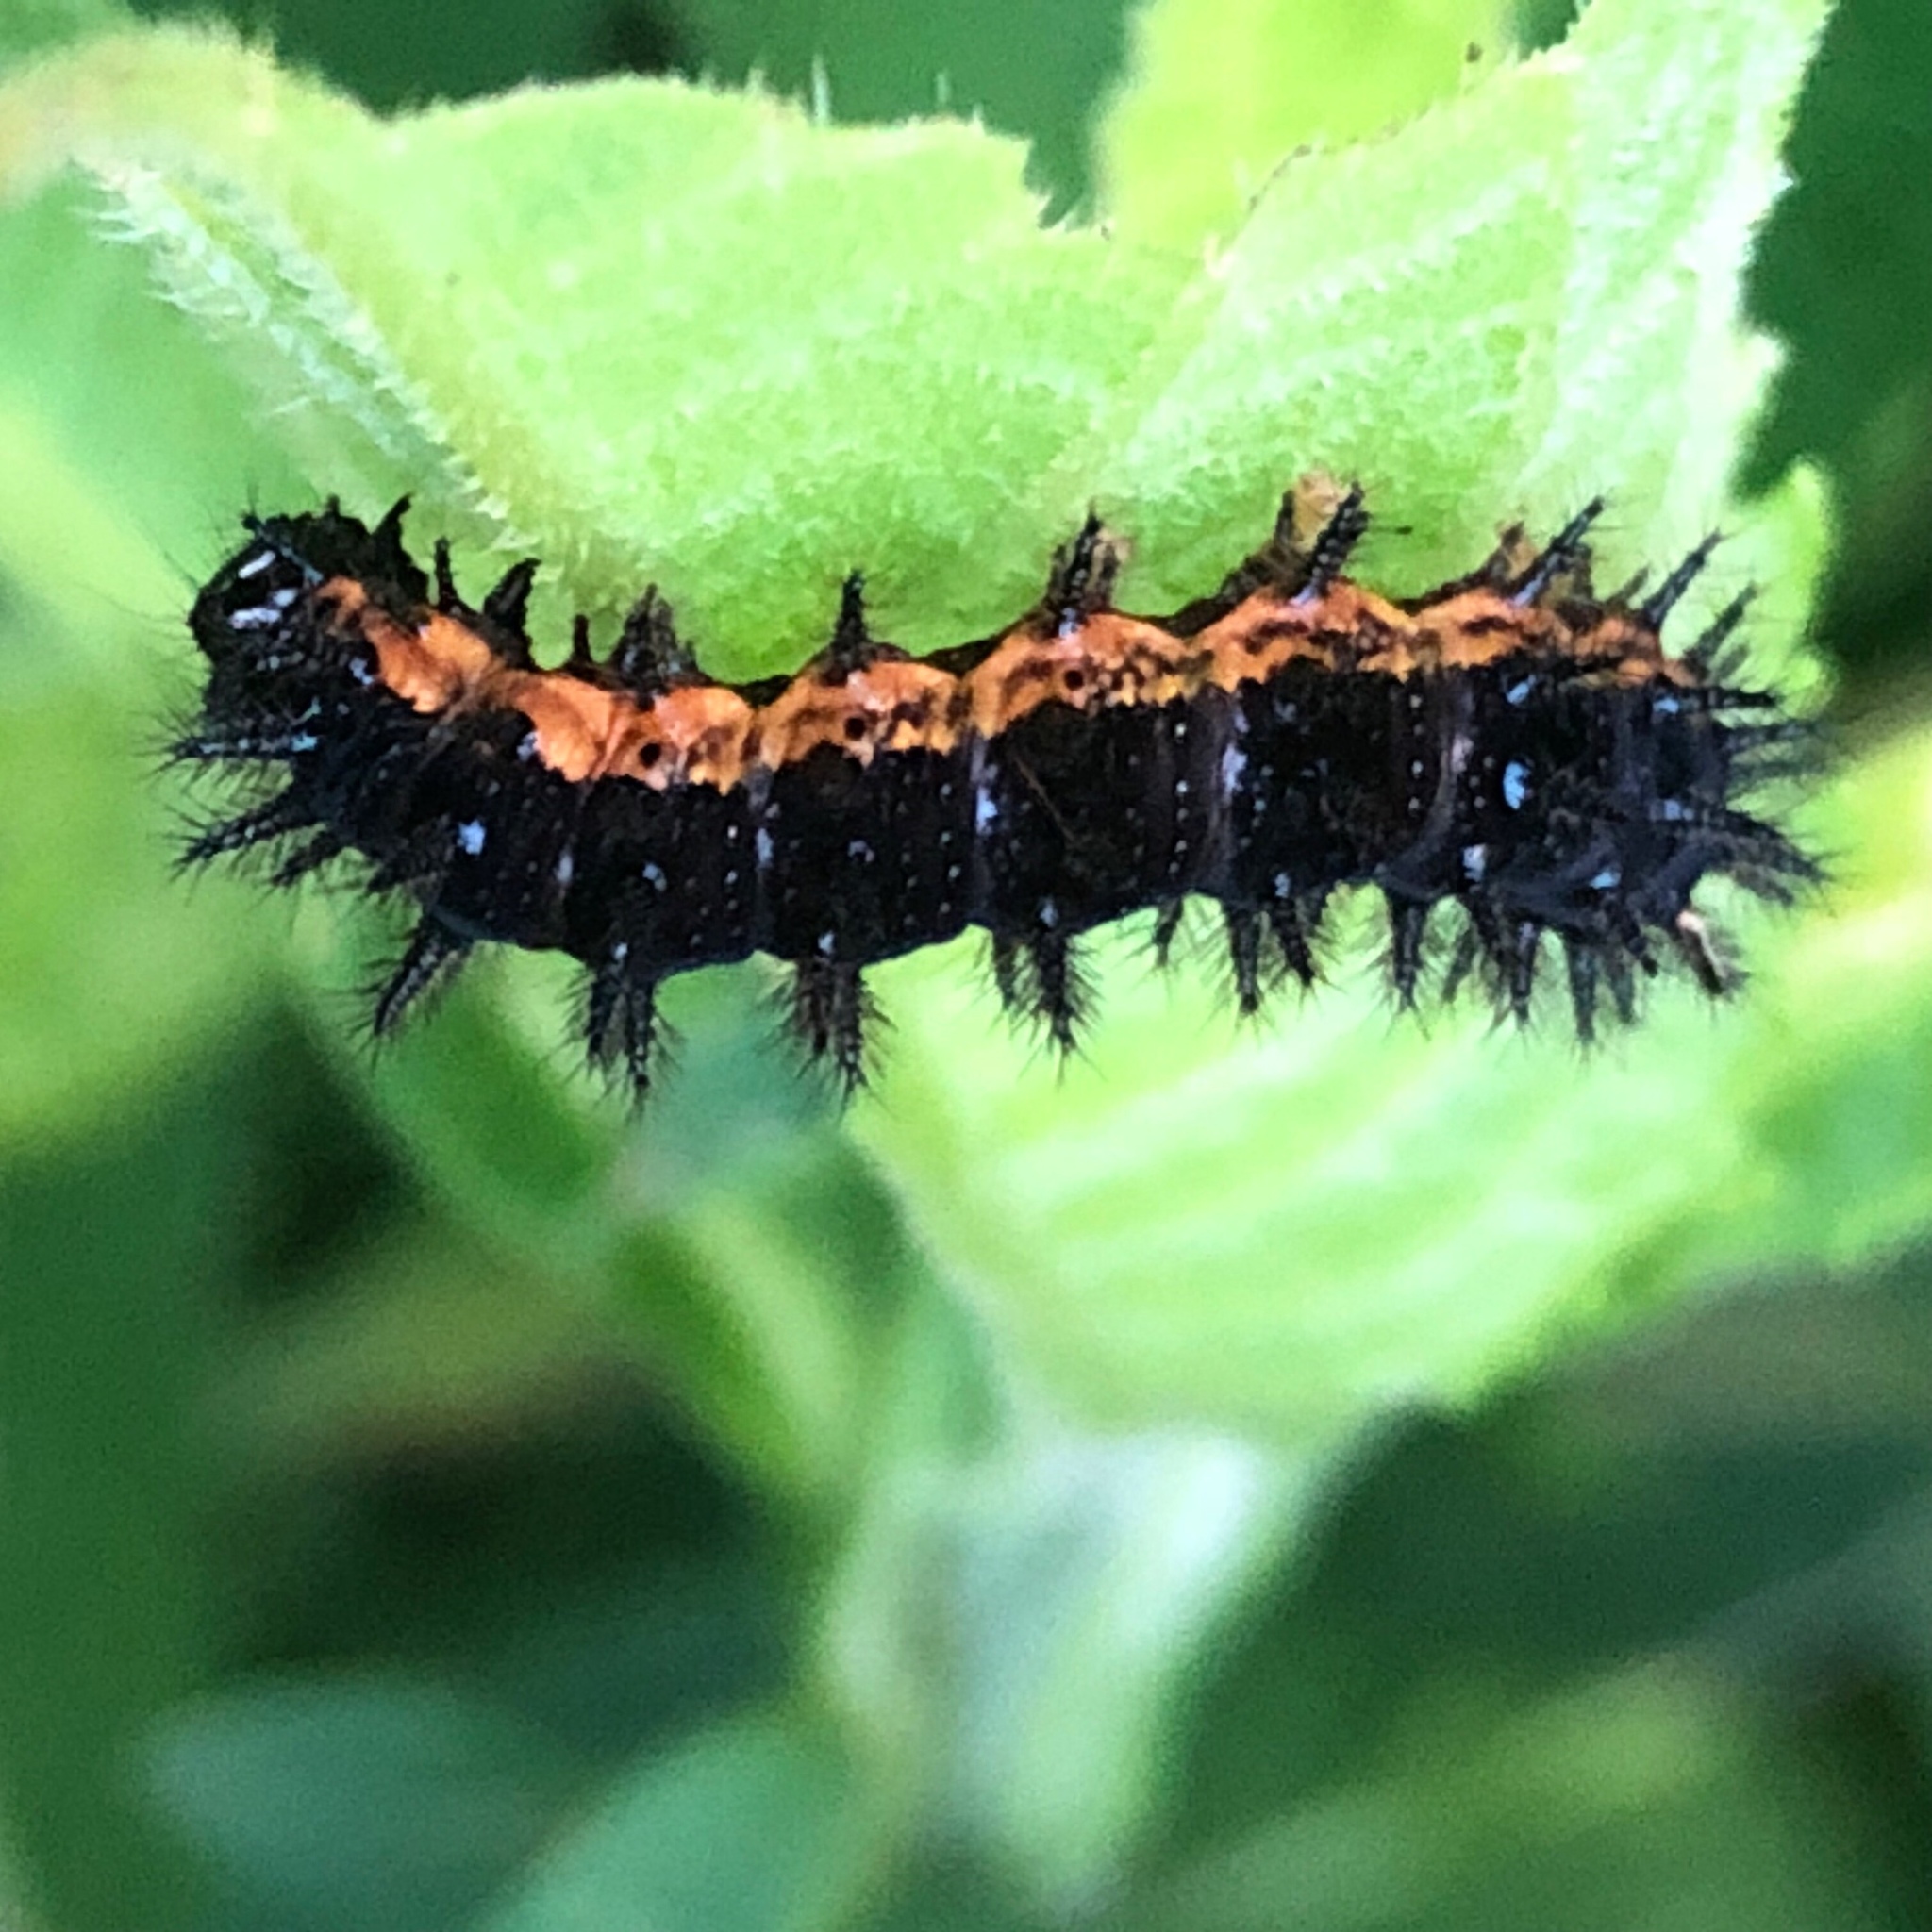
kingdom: Animalia
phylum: Arthropoda
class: Insecta
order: Lepidoptera
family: Nymphalidae
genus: Chlosyne
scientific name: Chlosyne nycteis
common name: Silvery checkerspot
